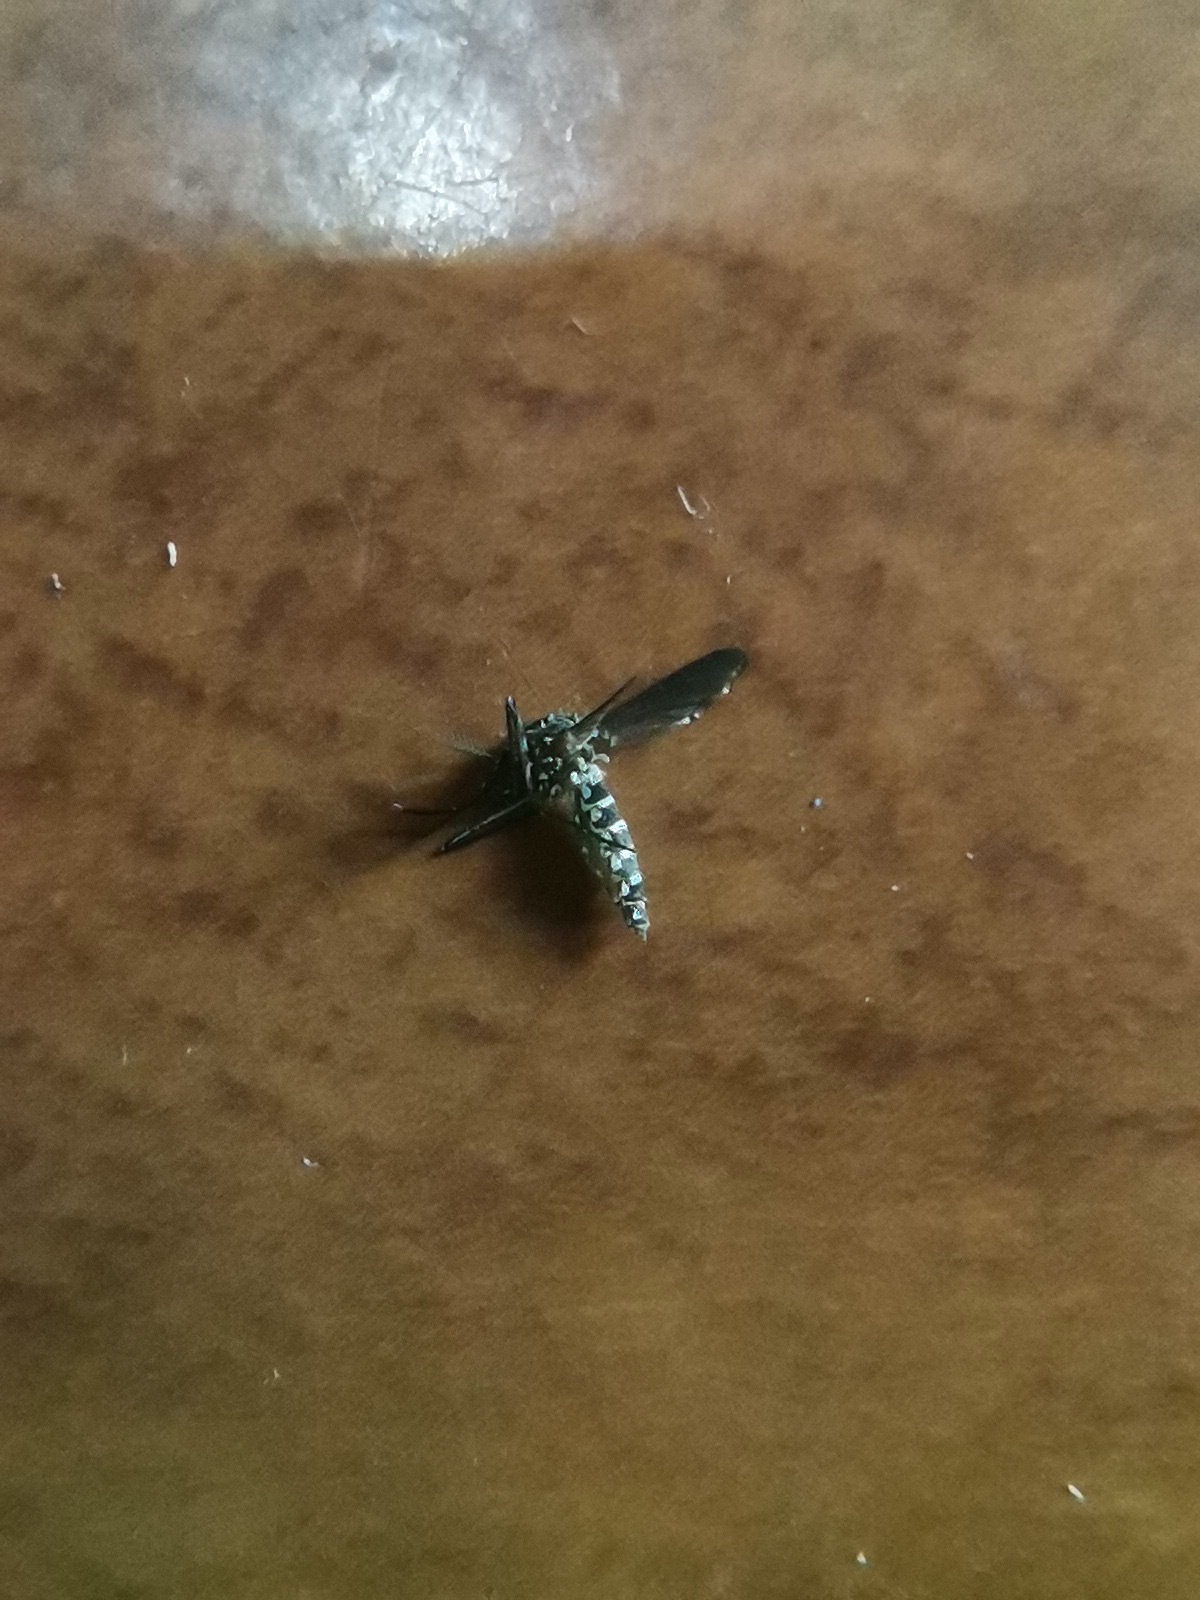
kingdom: Animalia
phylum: Arthropoda
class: Insecta
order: Diptera
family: Culicidae
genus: Aedes
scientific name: Aedes aegypti
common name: Yellow fever mosquito
